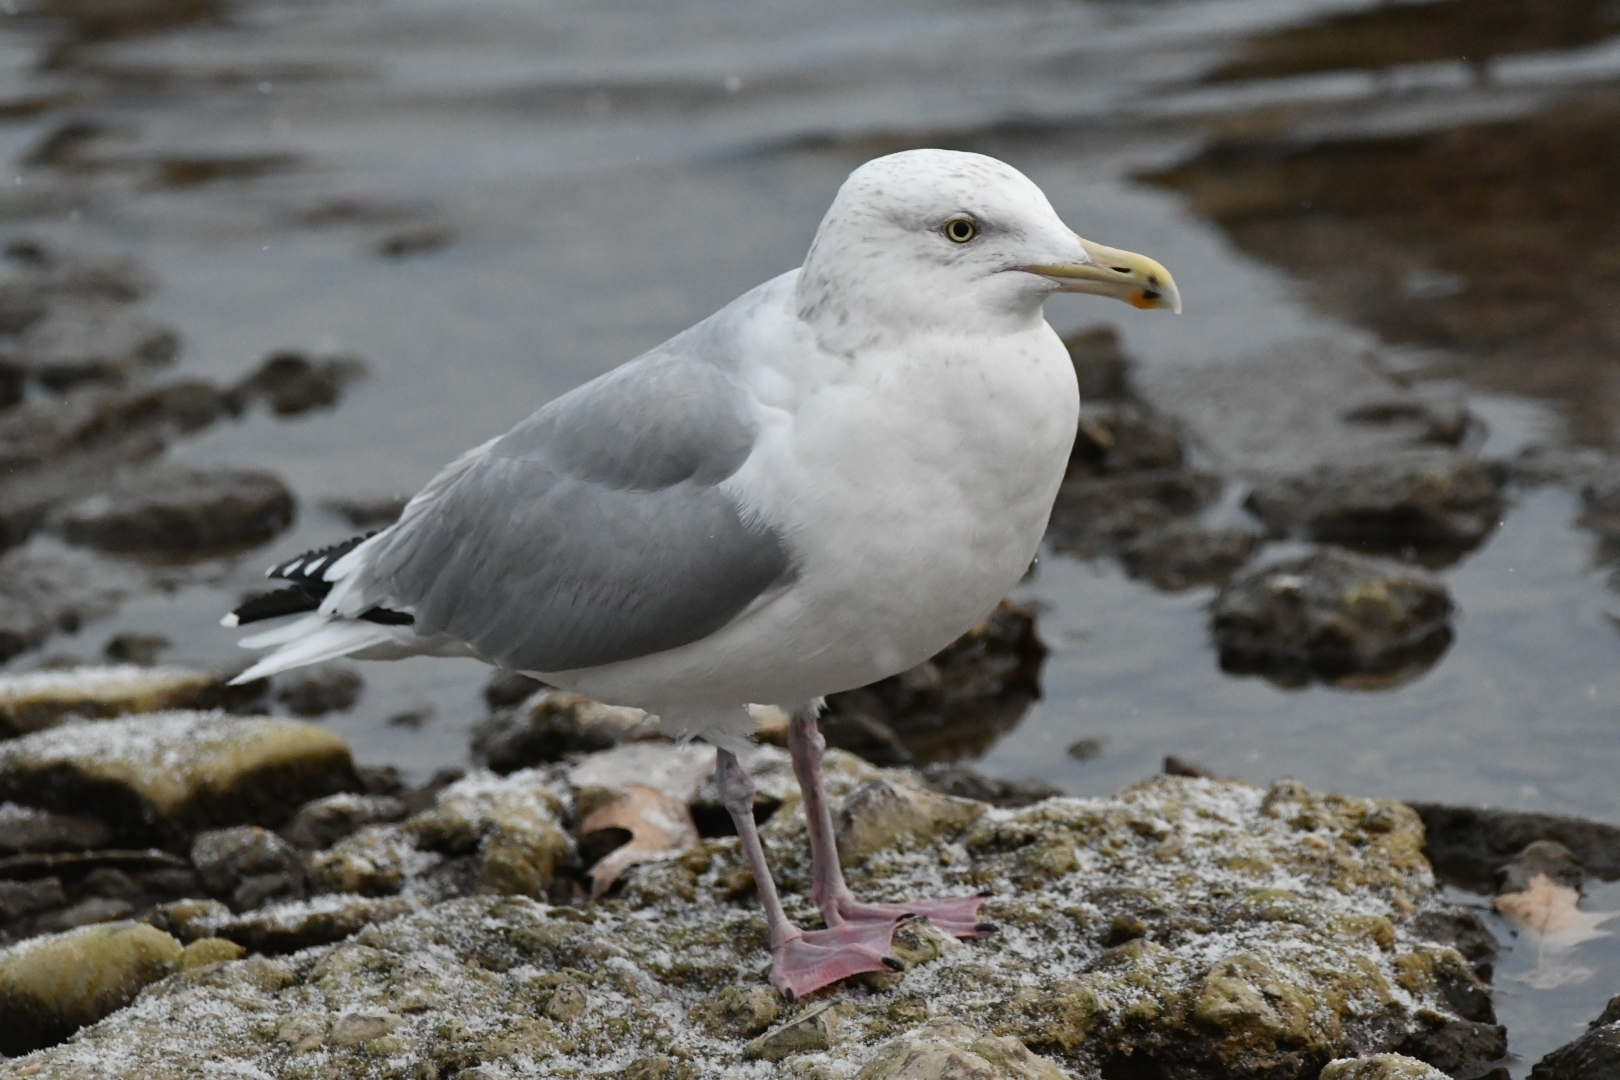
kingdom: Animalia
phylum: Chordata
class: Aves
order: Charadriiformes
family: Laridae
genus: Larus
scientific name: Larus argentatus
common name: Herring gull
